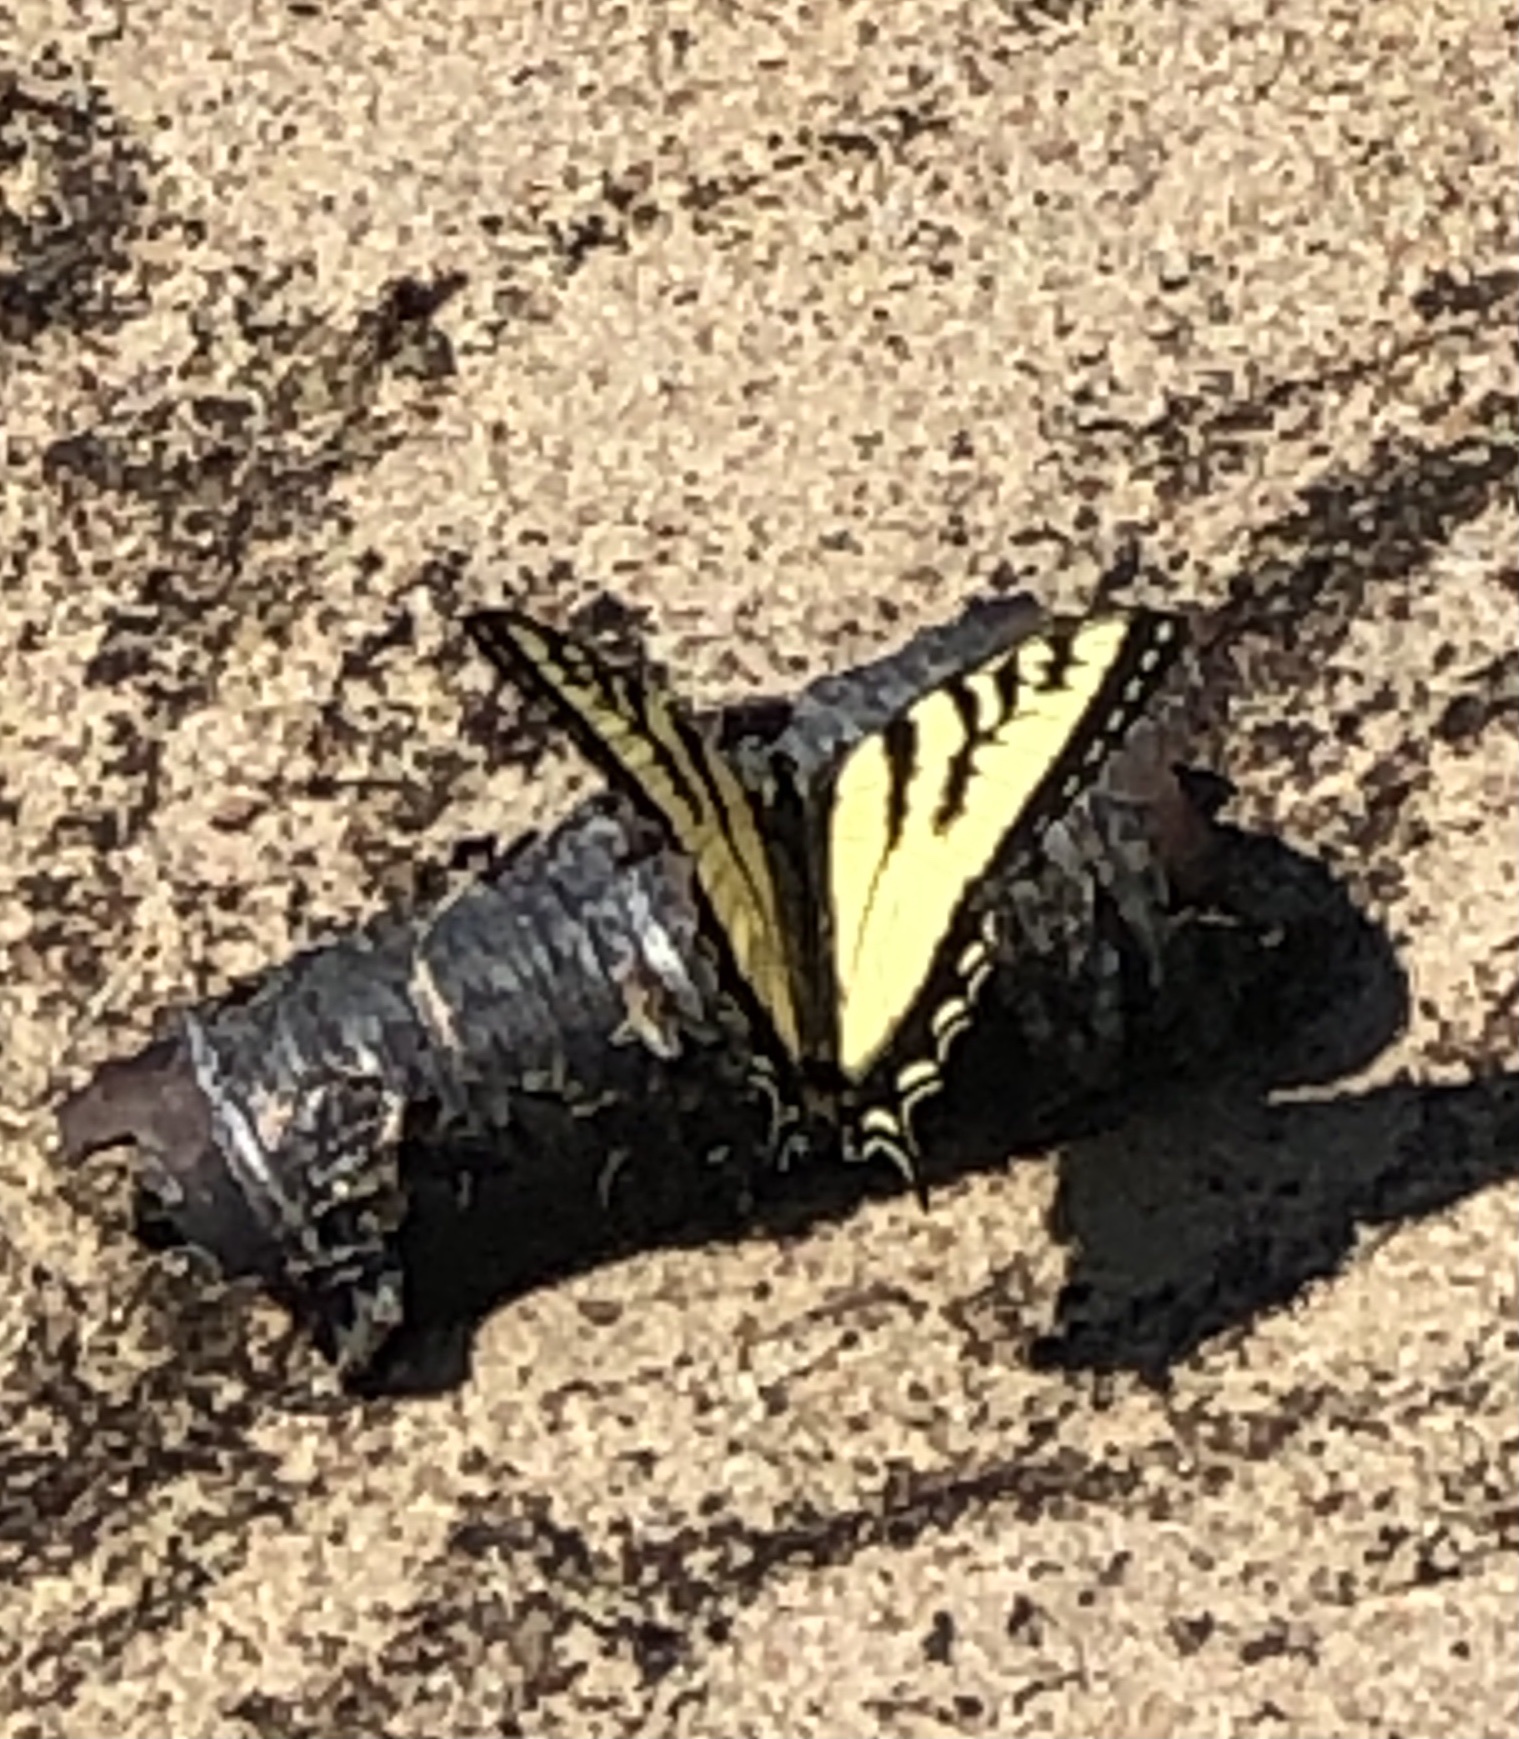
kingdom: Animalia
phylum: Arthropoda
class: Insecta
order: Lepidoptera
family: Papilionidae
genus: Papilio
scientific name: Papilio canadensis
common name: Canadian tiger swallowtail
